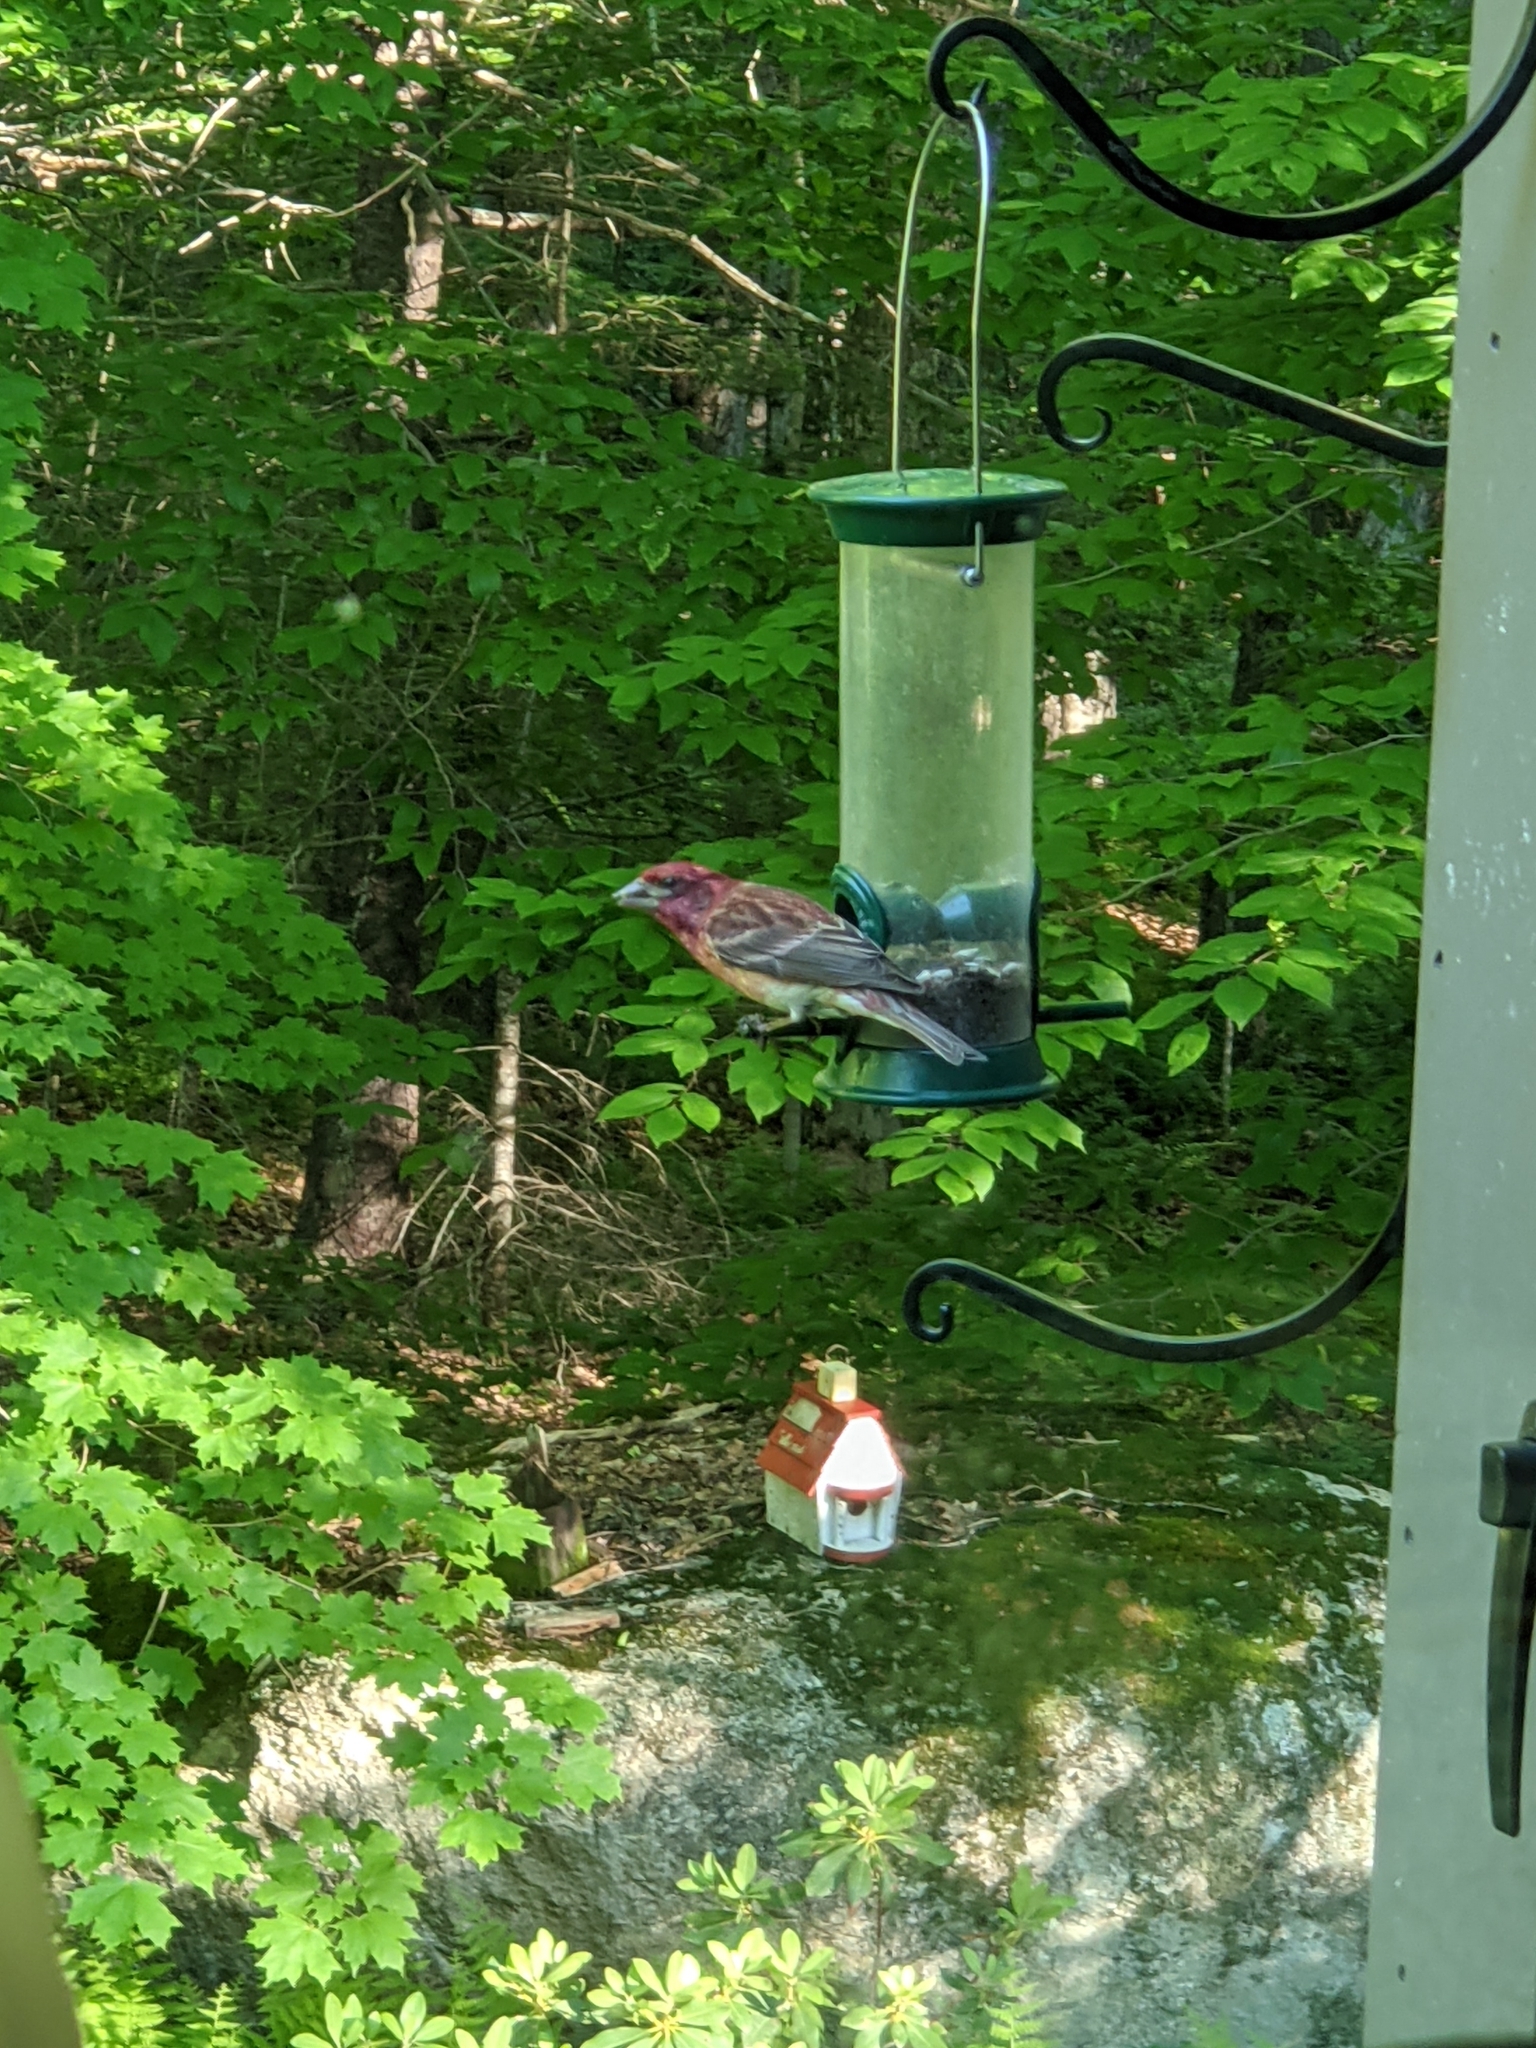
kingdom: Animalia
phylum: Chordata
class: Aves
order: Passeriformes
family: Fringillidae
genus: Haemorhous
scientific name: Haemorhous purpureus
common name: Purple finch
